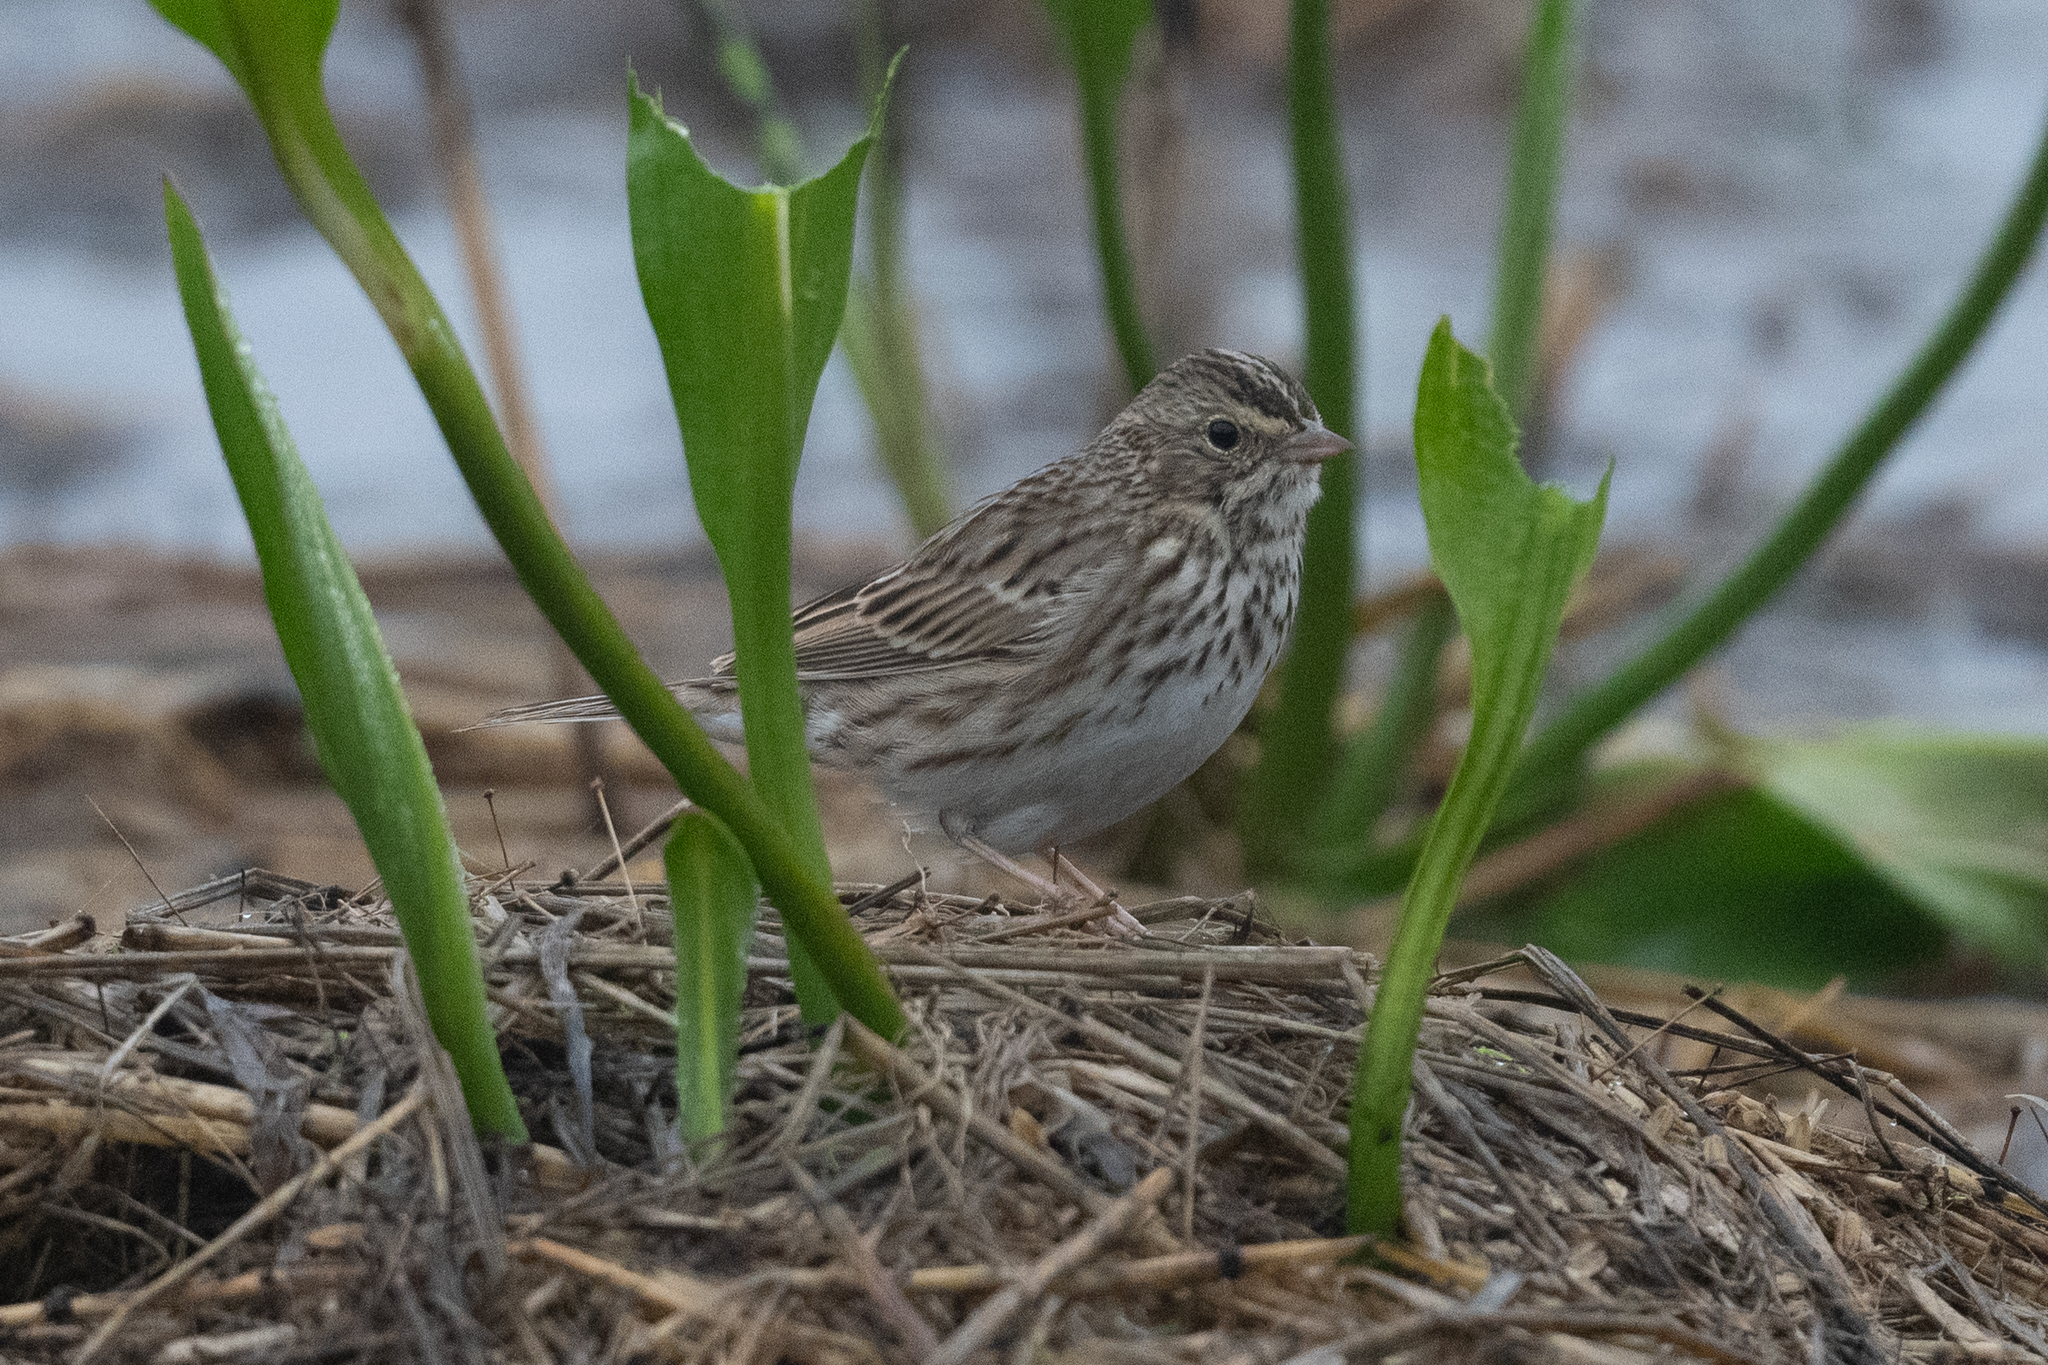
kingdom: Animalia
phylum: Chordata
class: Aves
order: Passeriformes
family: Passerellidae
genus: Passerculus
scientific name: Passerculus sandwichensis
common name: Savannah sparrow
